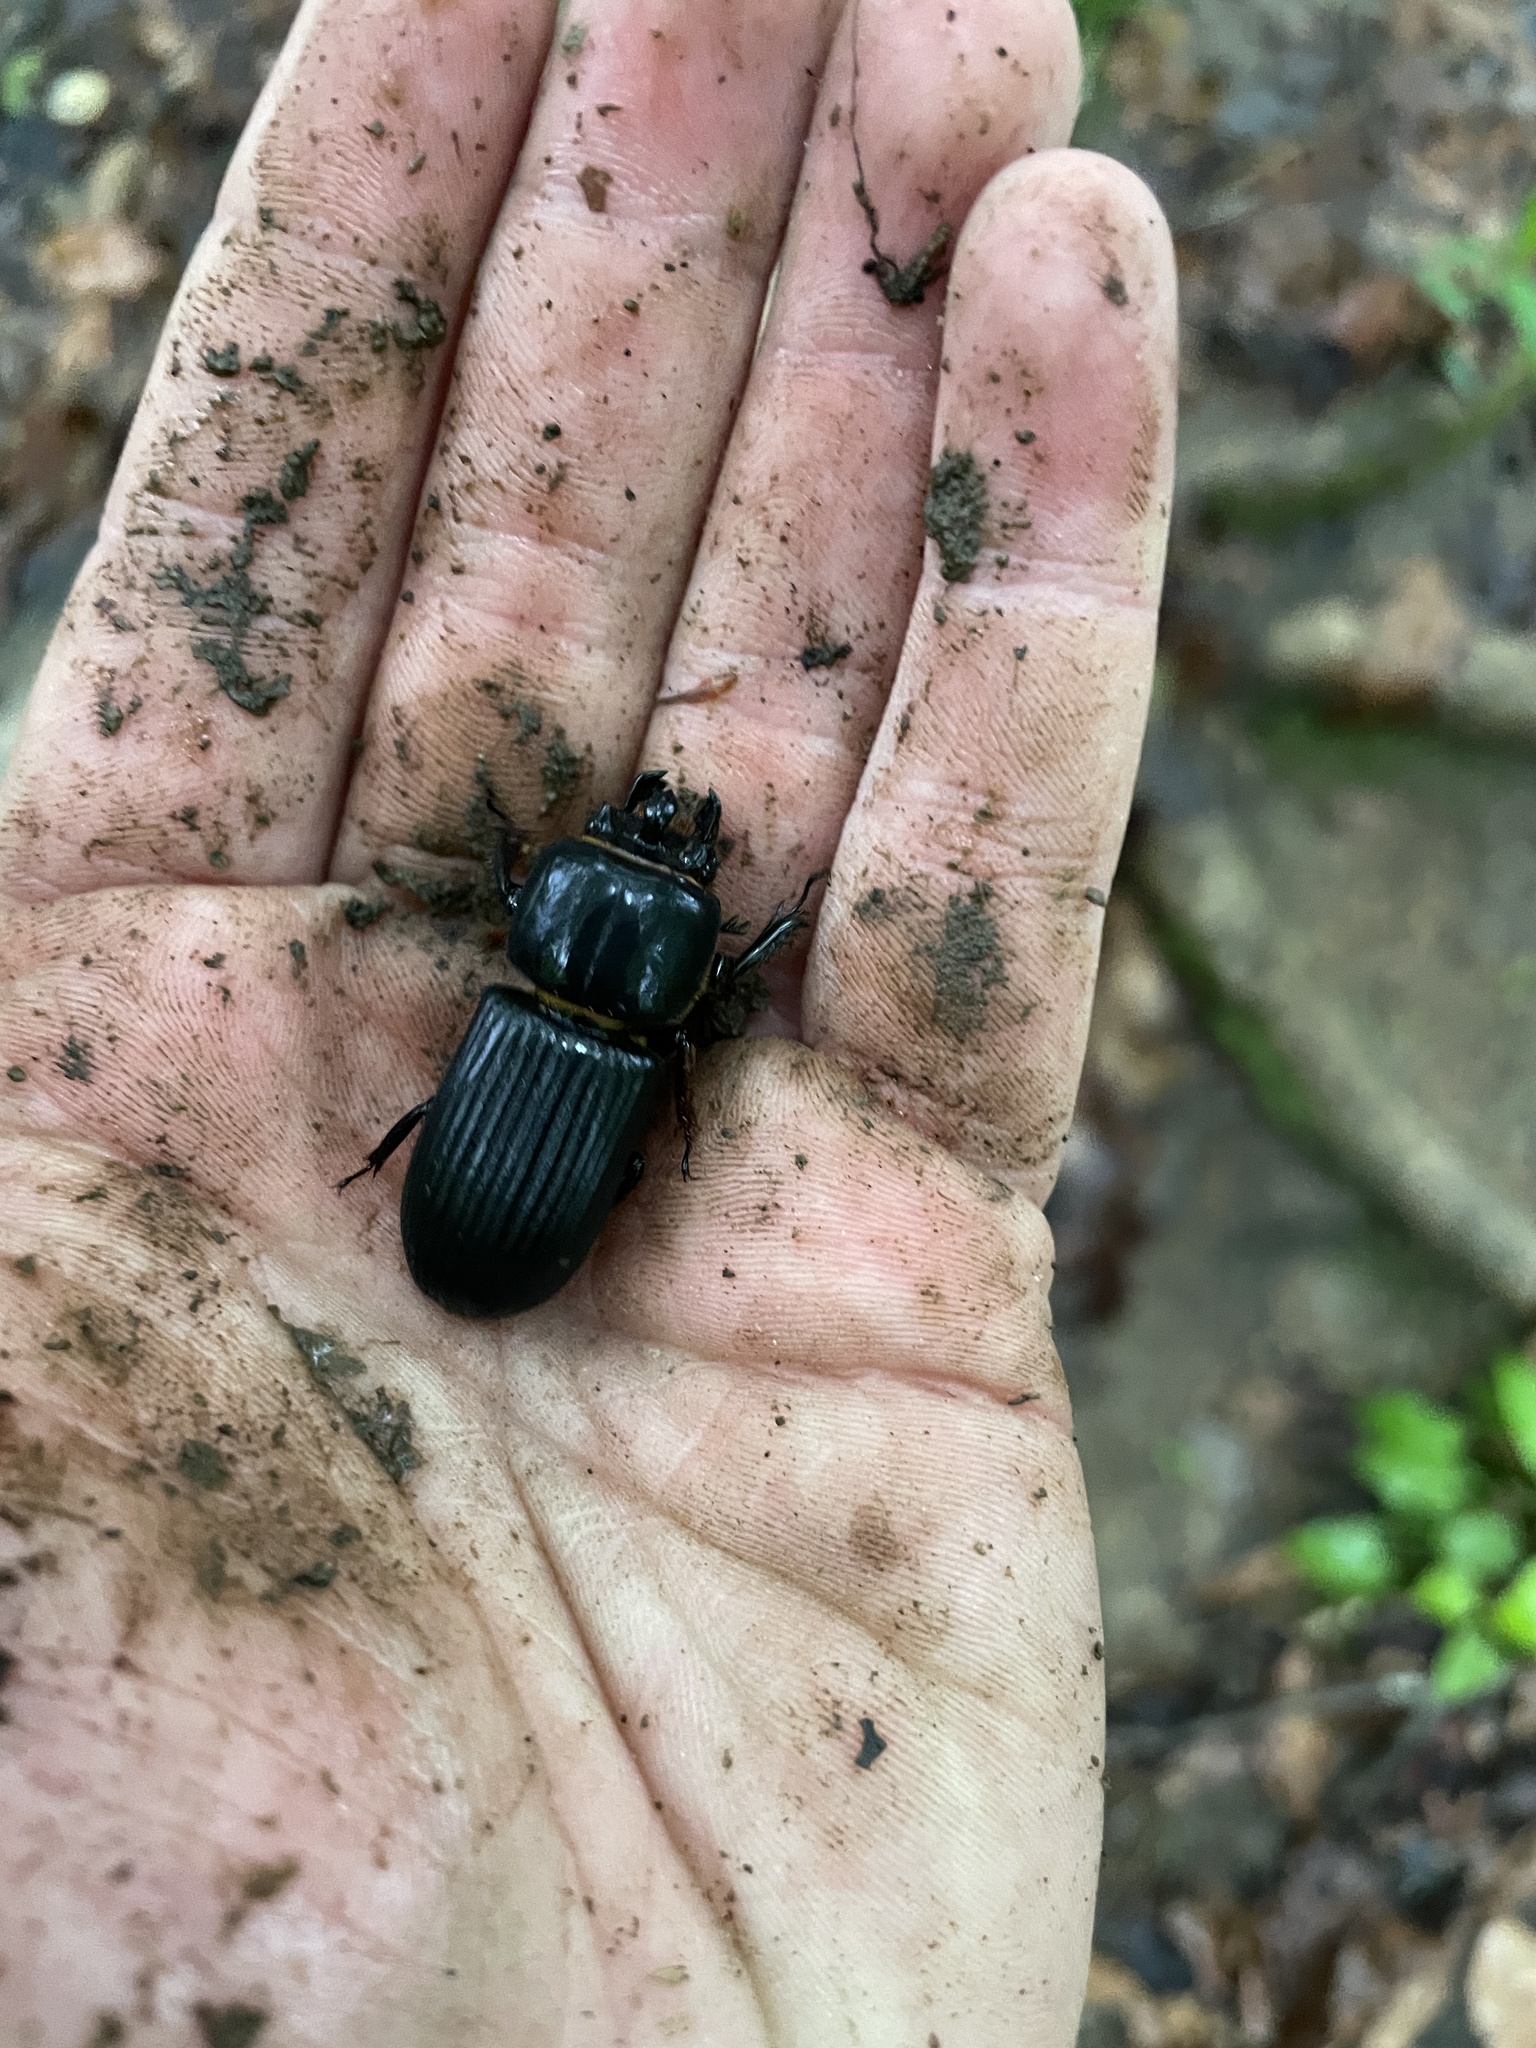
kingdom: Animalia
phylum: Arthropoda
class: Insecta
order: Coleoptera
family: Passalidae
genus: Odontotaenius
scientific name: Odontotaenius disjunctus
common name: Patent leather beetle
